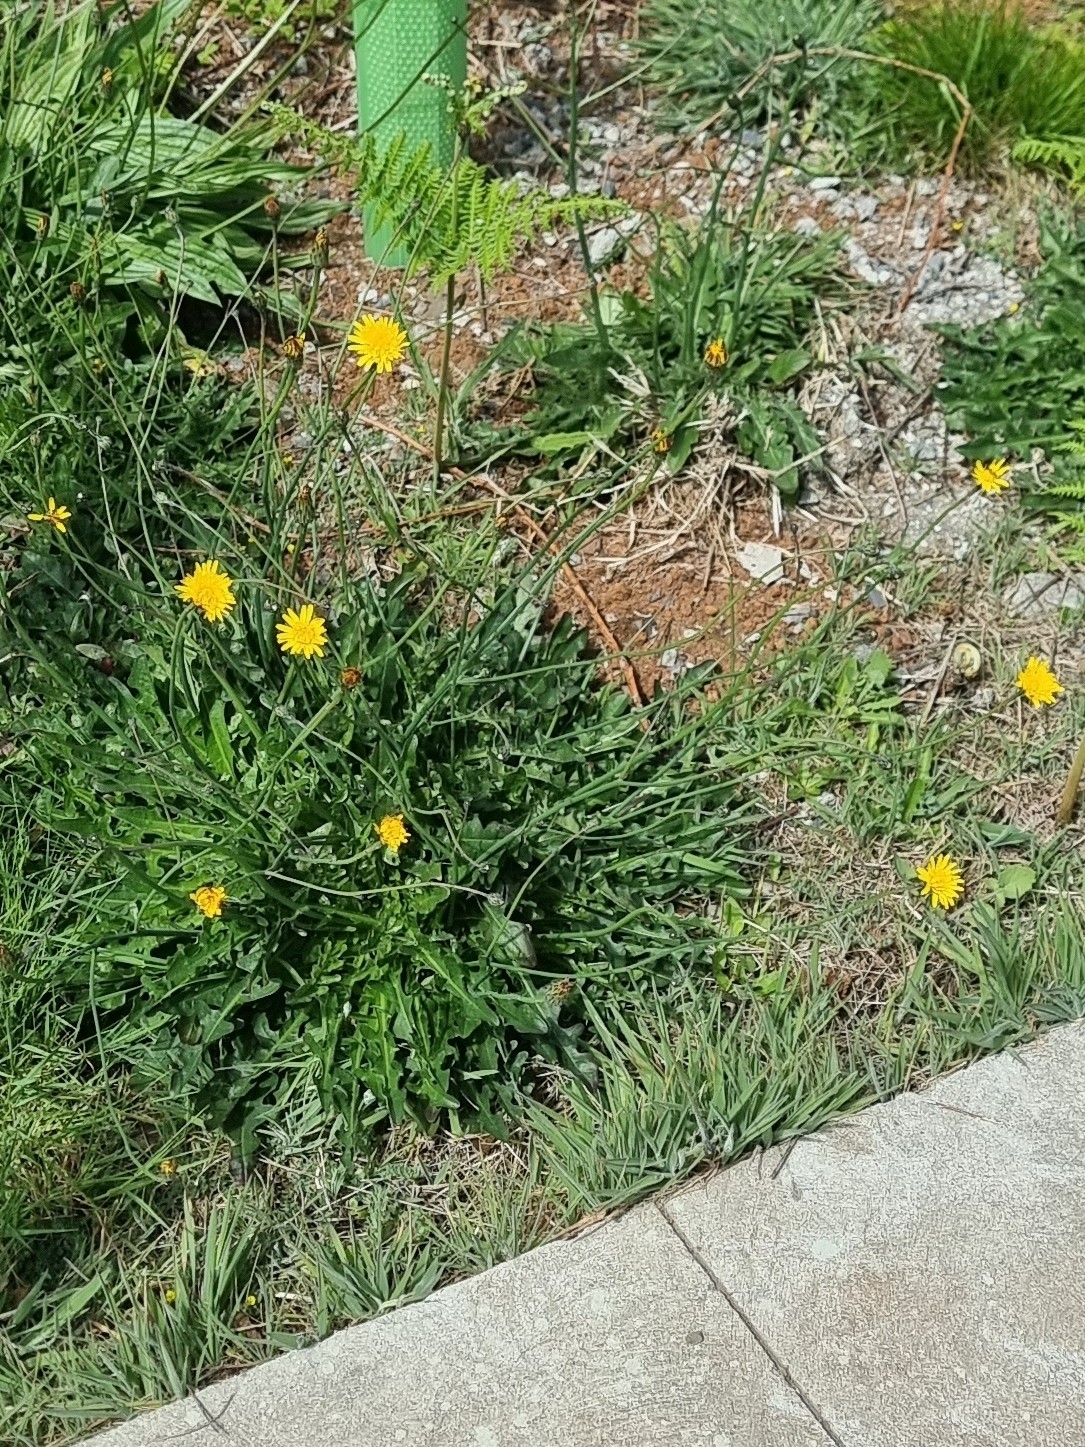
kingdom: Plantae
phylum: Tracheophyta
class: Magnoliopsida
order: Asterales
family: Asteraceae
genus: Hypochaeris
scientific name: Hypochaeris radicata
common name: Flatweed
